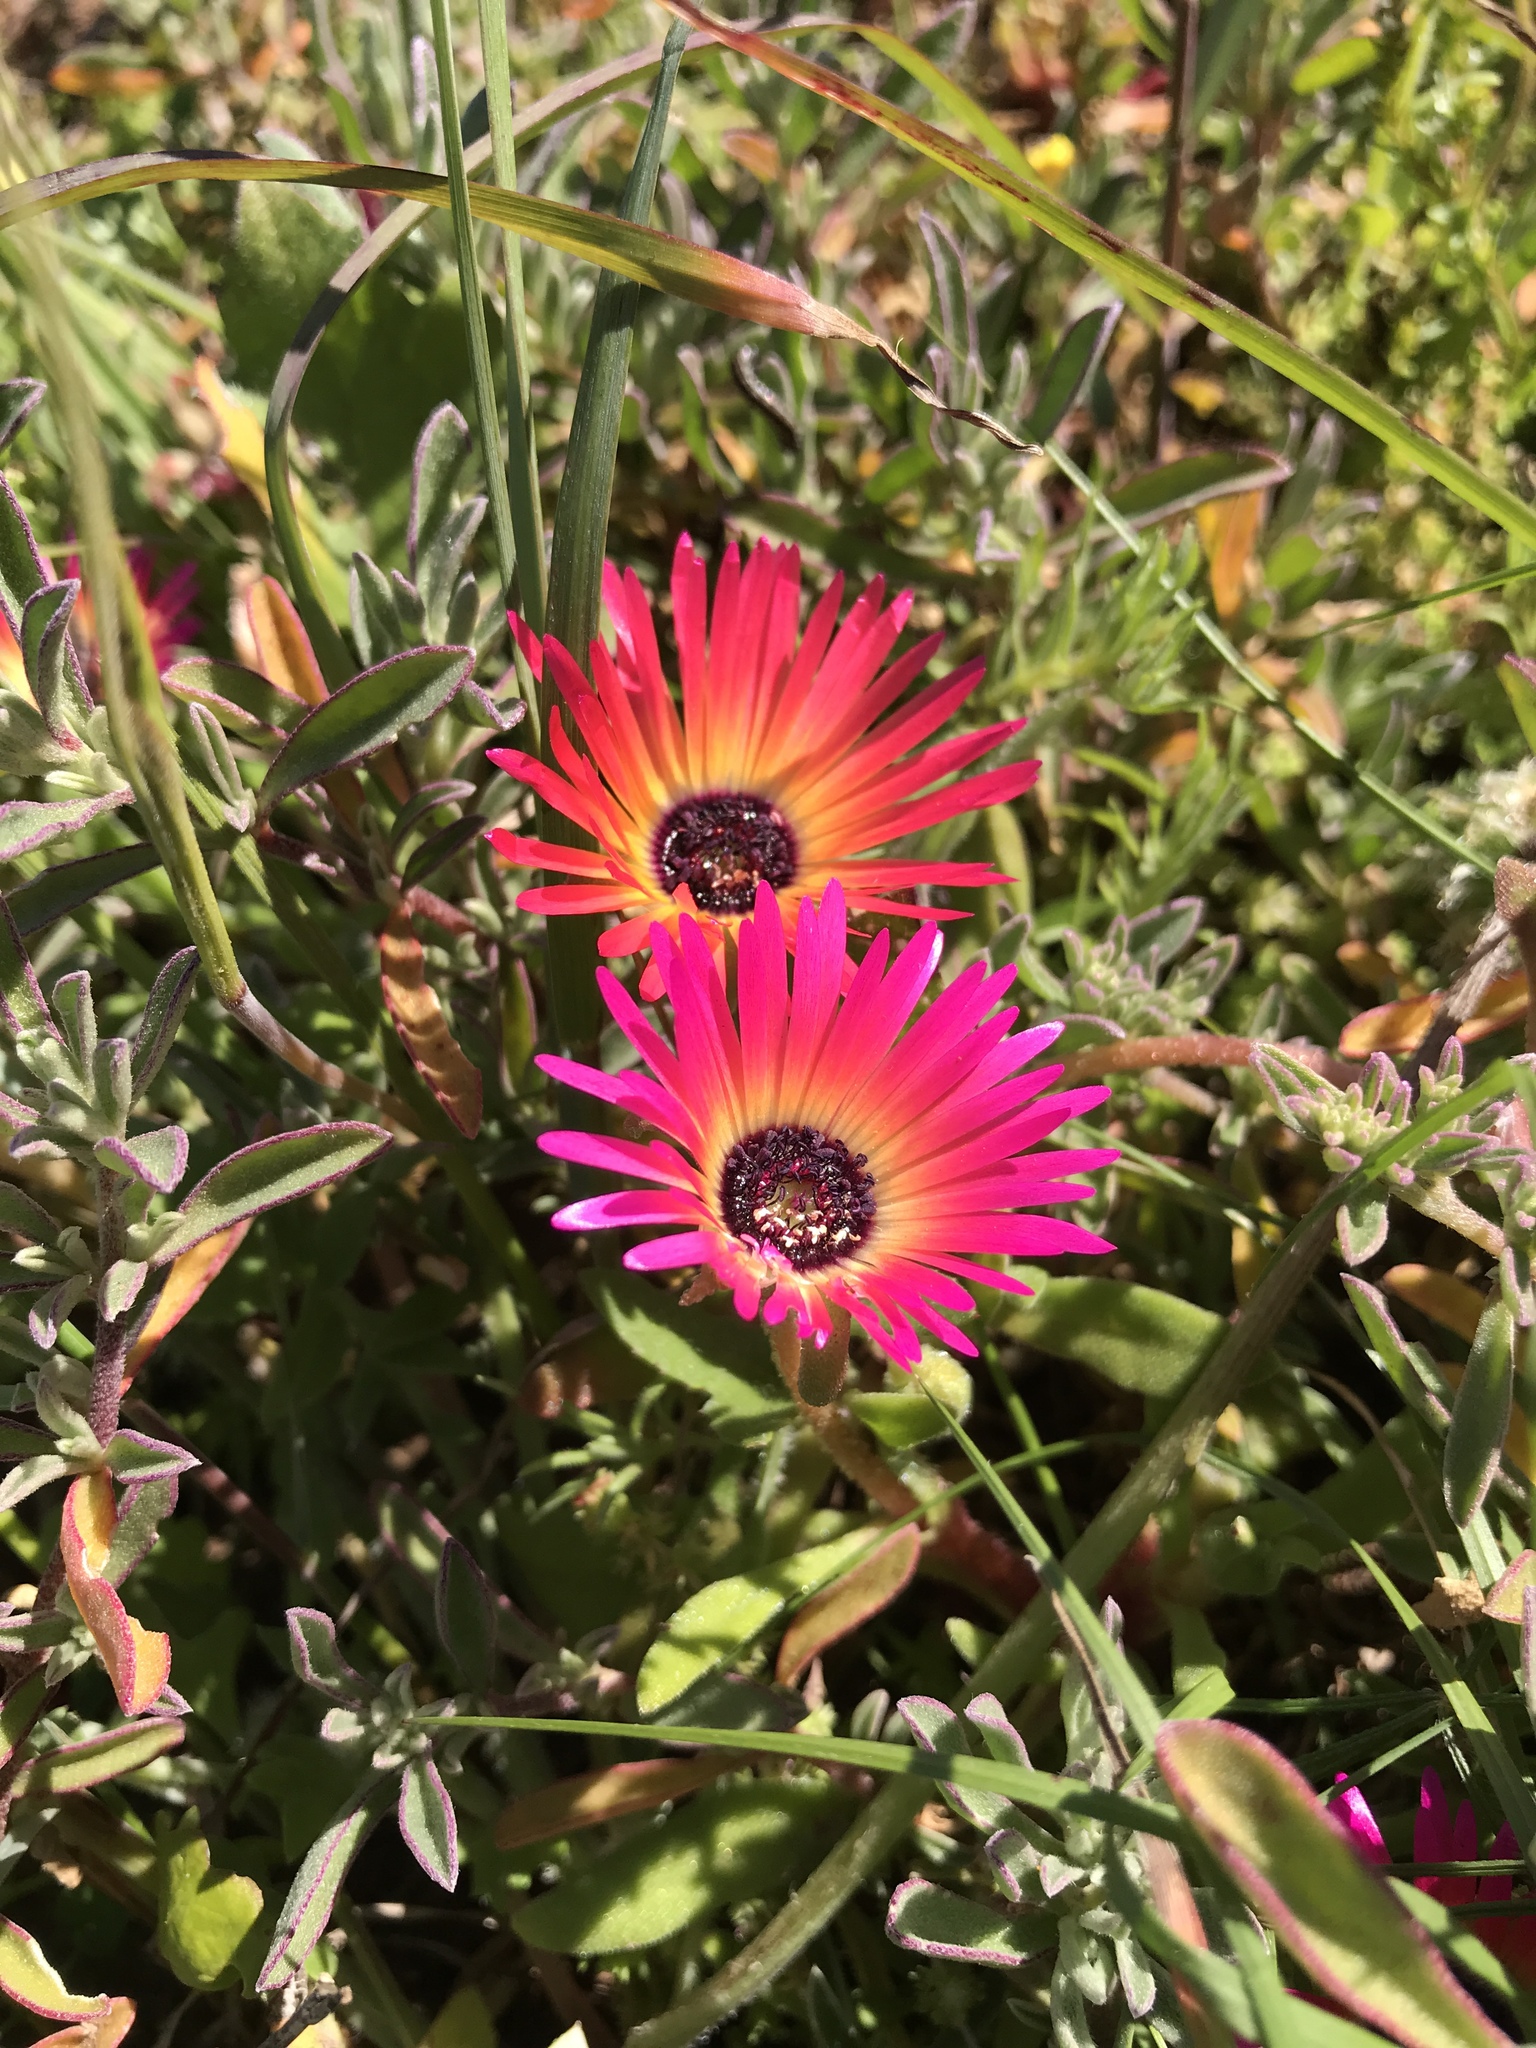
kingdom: Plantae
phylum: Tracheophyta
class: Magnoliopsida
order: Caryophyllales
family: Aizoaceae
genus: Cleretum
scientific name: Cleretum bellidiforme
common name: Livingstone daisy
